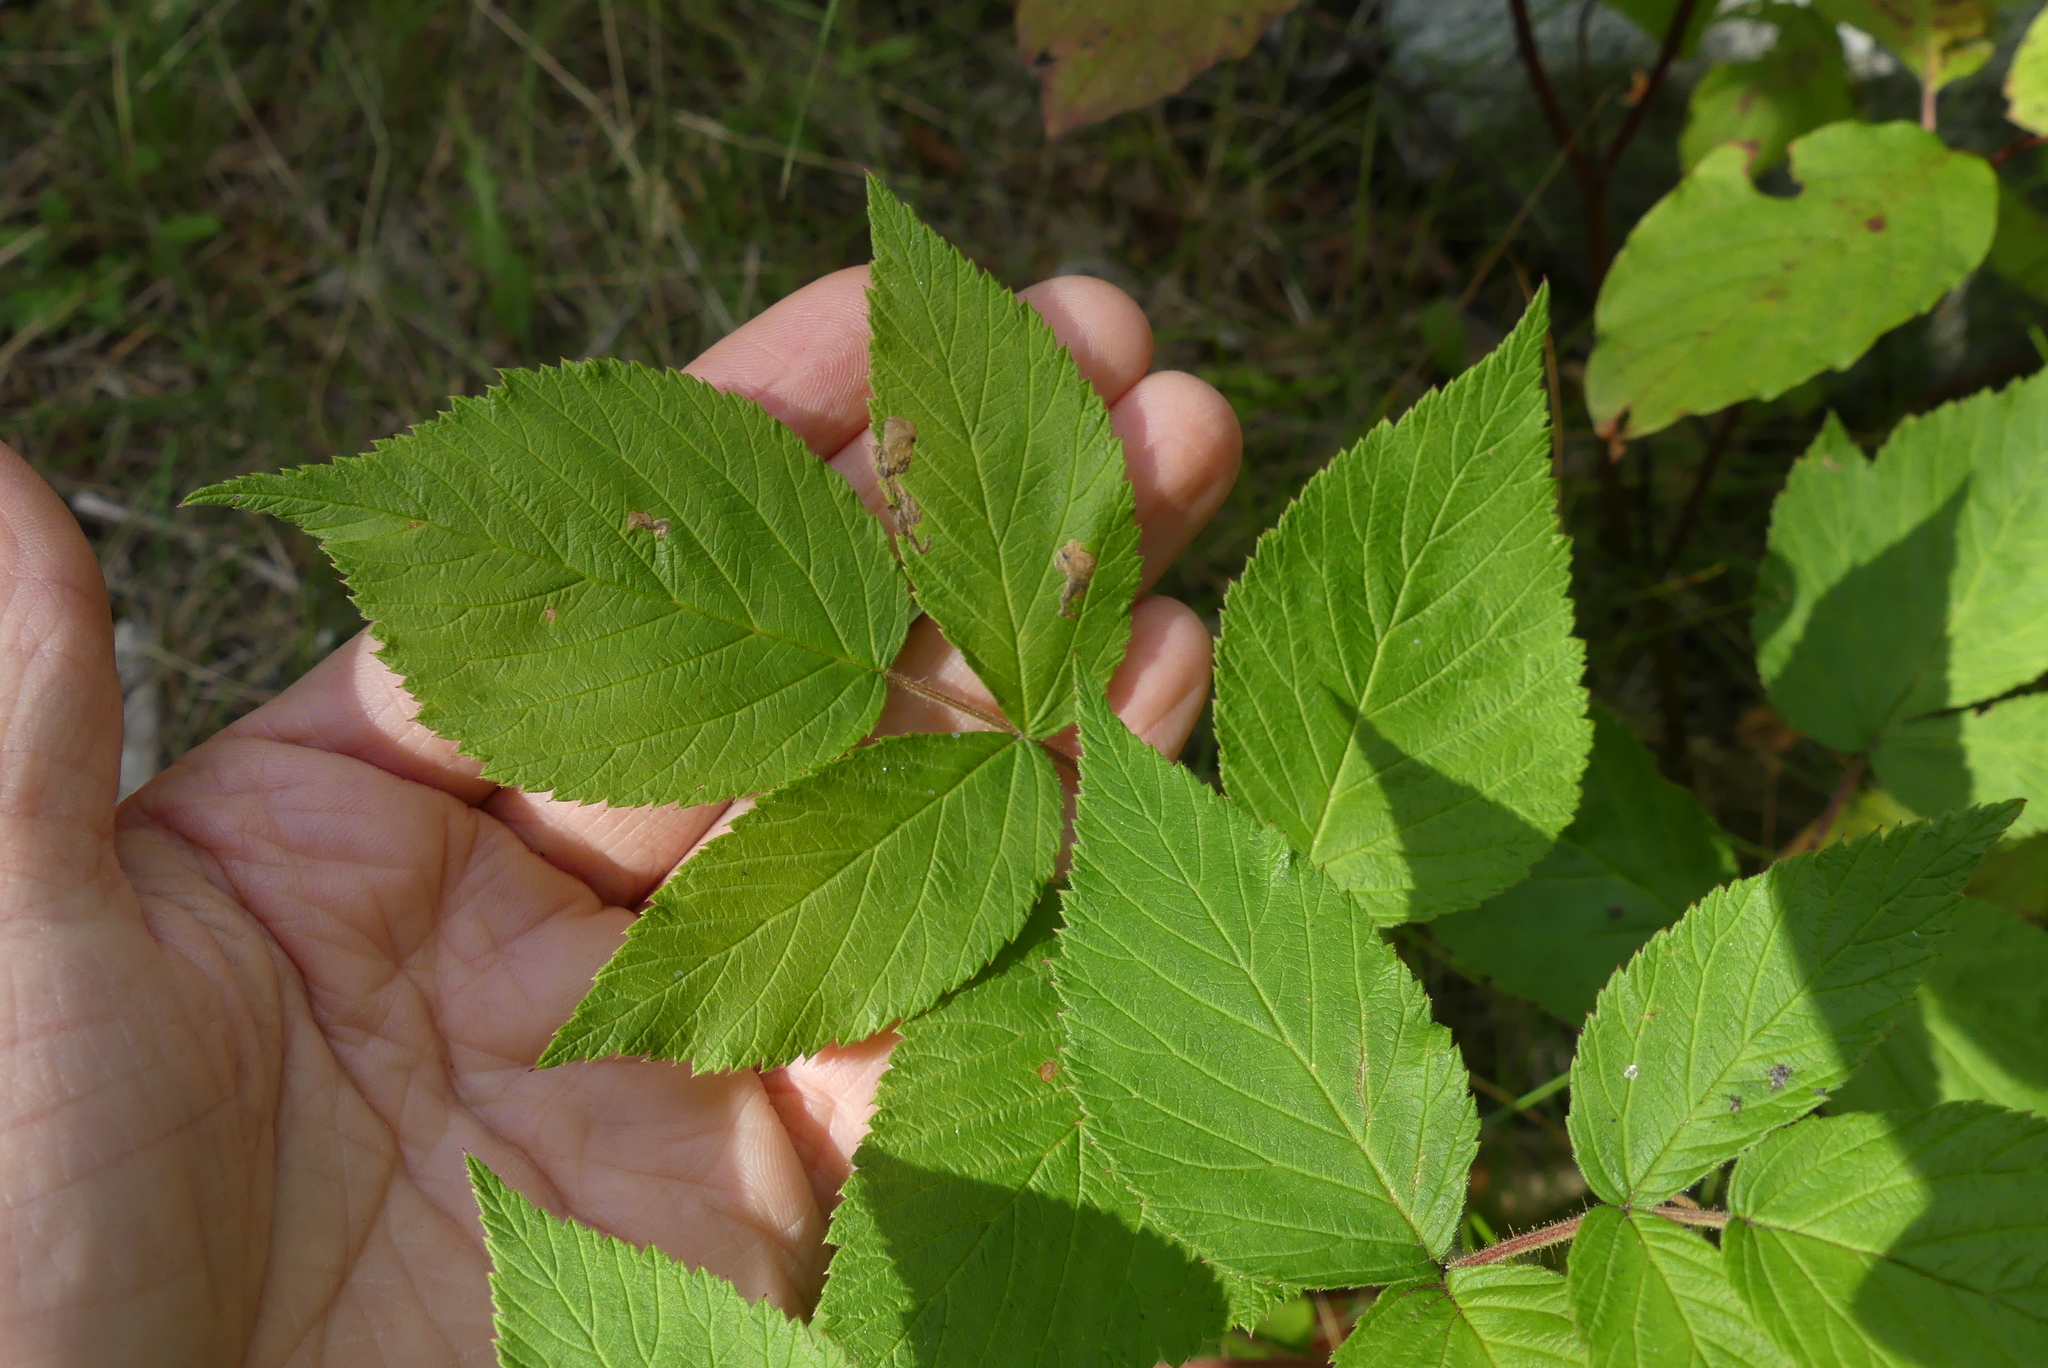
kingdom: Plantae
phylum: Tracheophyta
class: Magnoliopsida
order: Rosales
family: Rosaceae
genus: Rubus
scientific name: Rubus idaeus
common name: Raspberry
